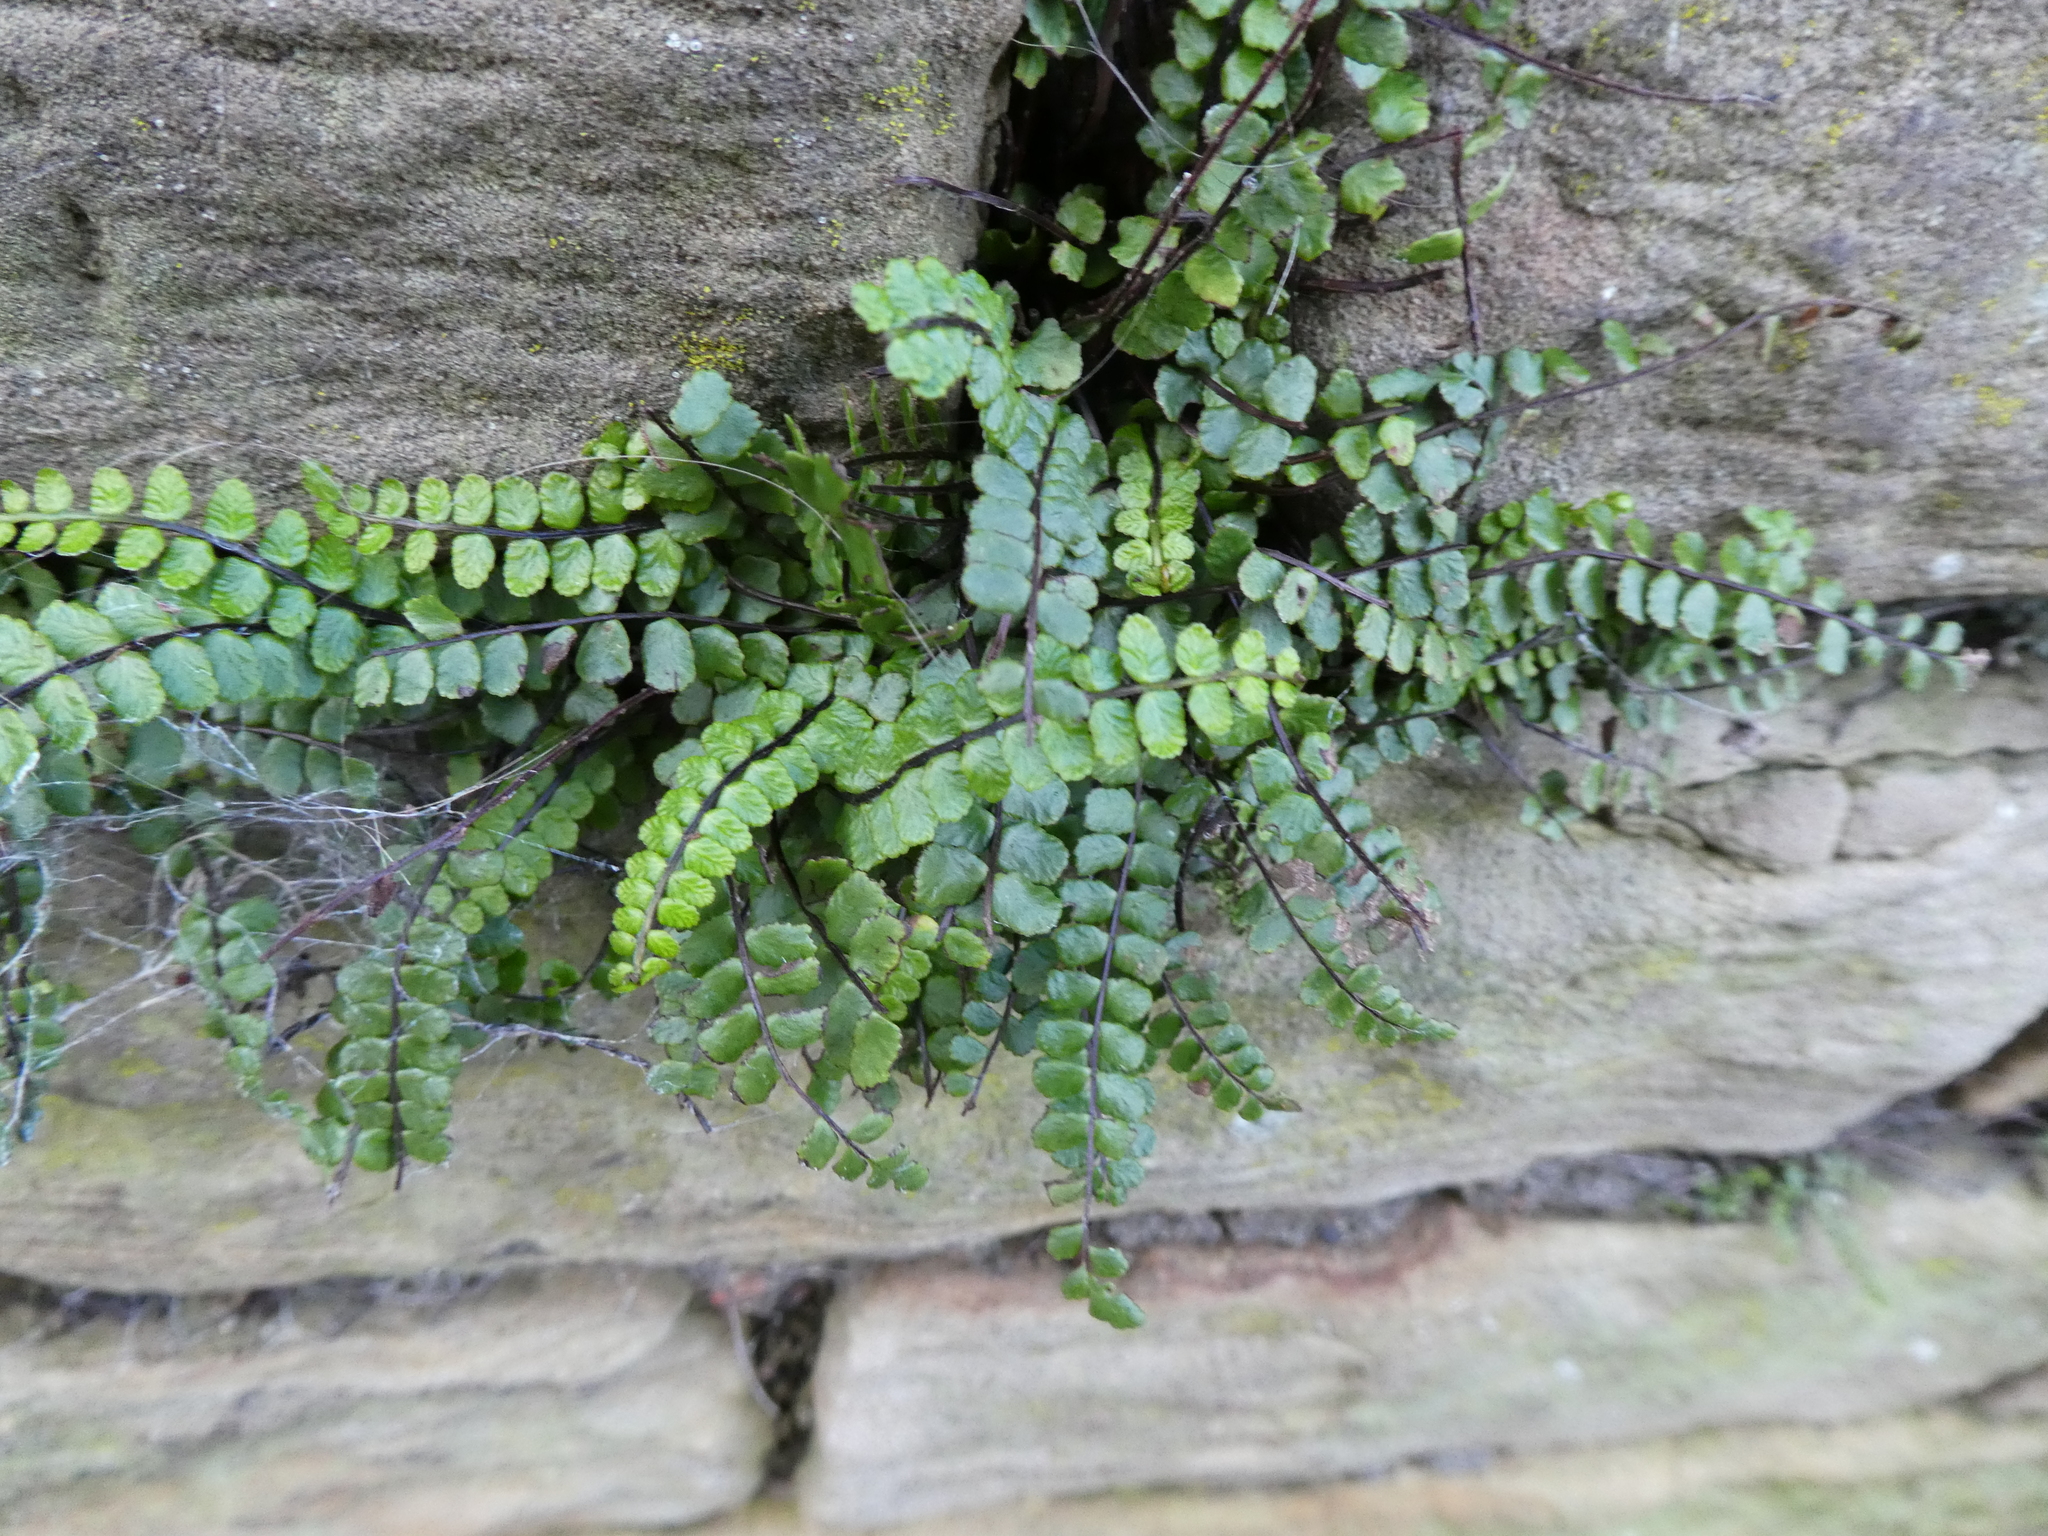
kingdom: Plantae
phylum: Tracheophyta
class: Polypodiopsida
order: Polypodiales
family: Aspleniaceae
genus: Asplenium
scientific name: Asplenium trichomanes
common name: Maidenhair spleenwort
